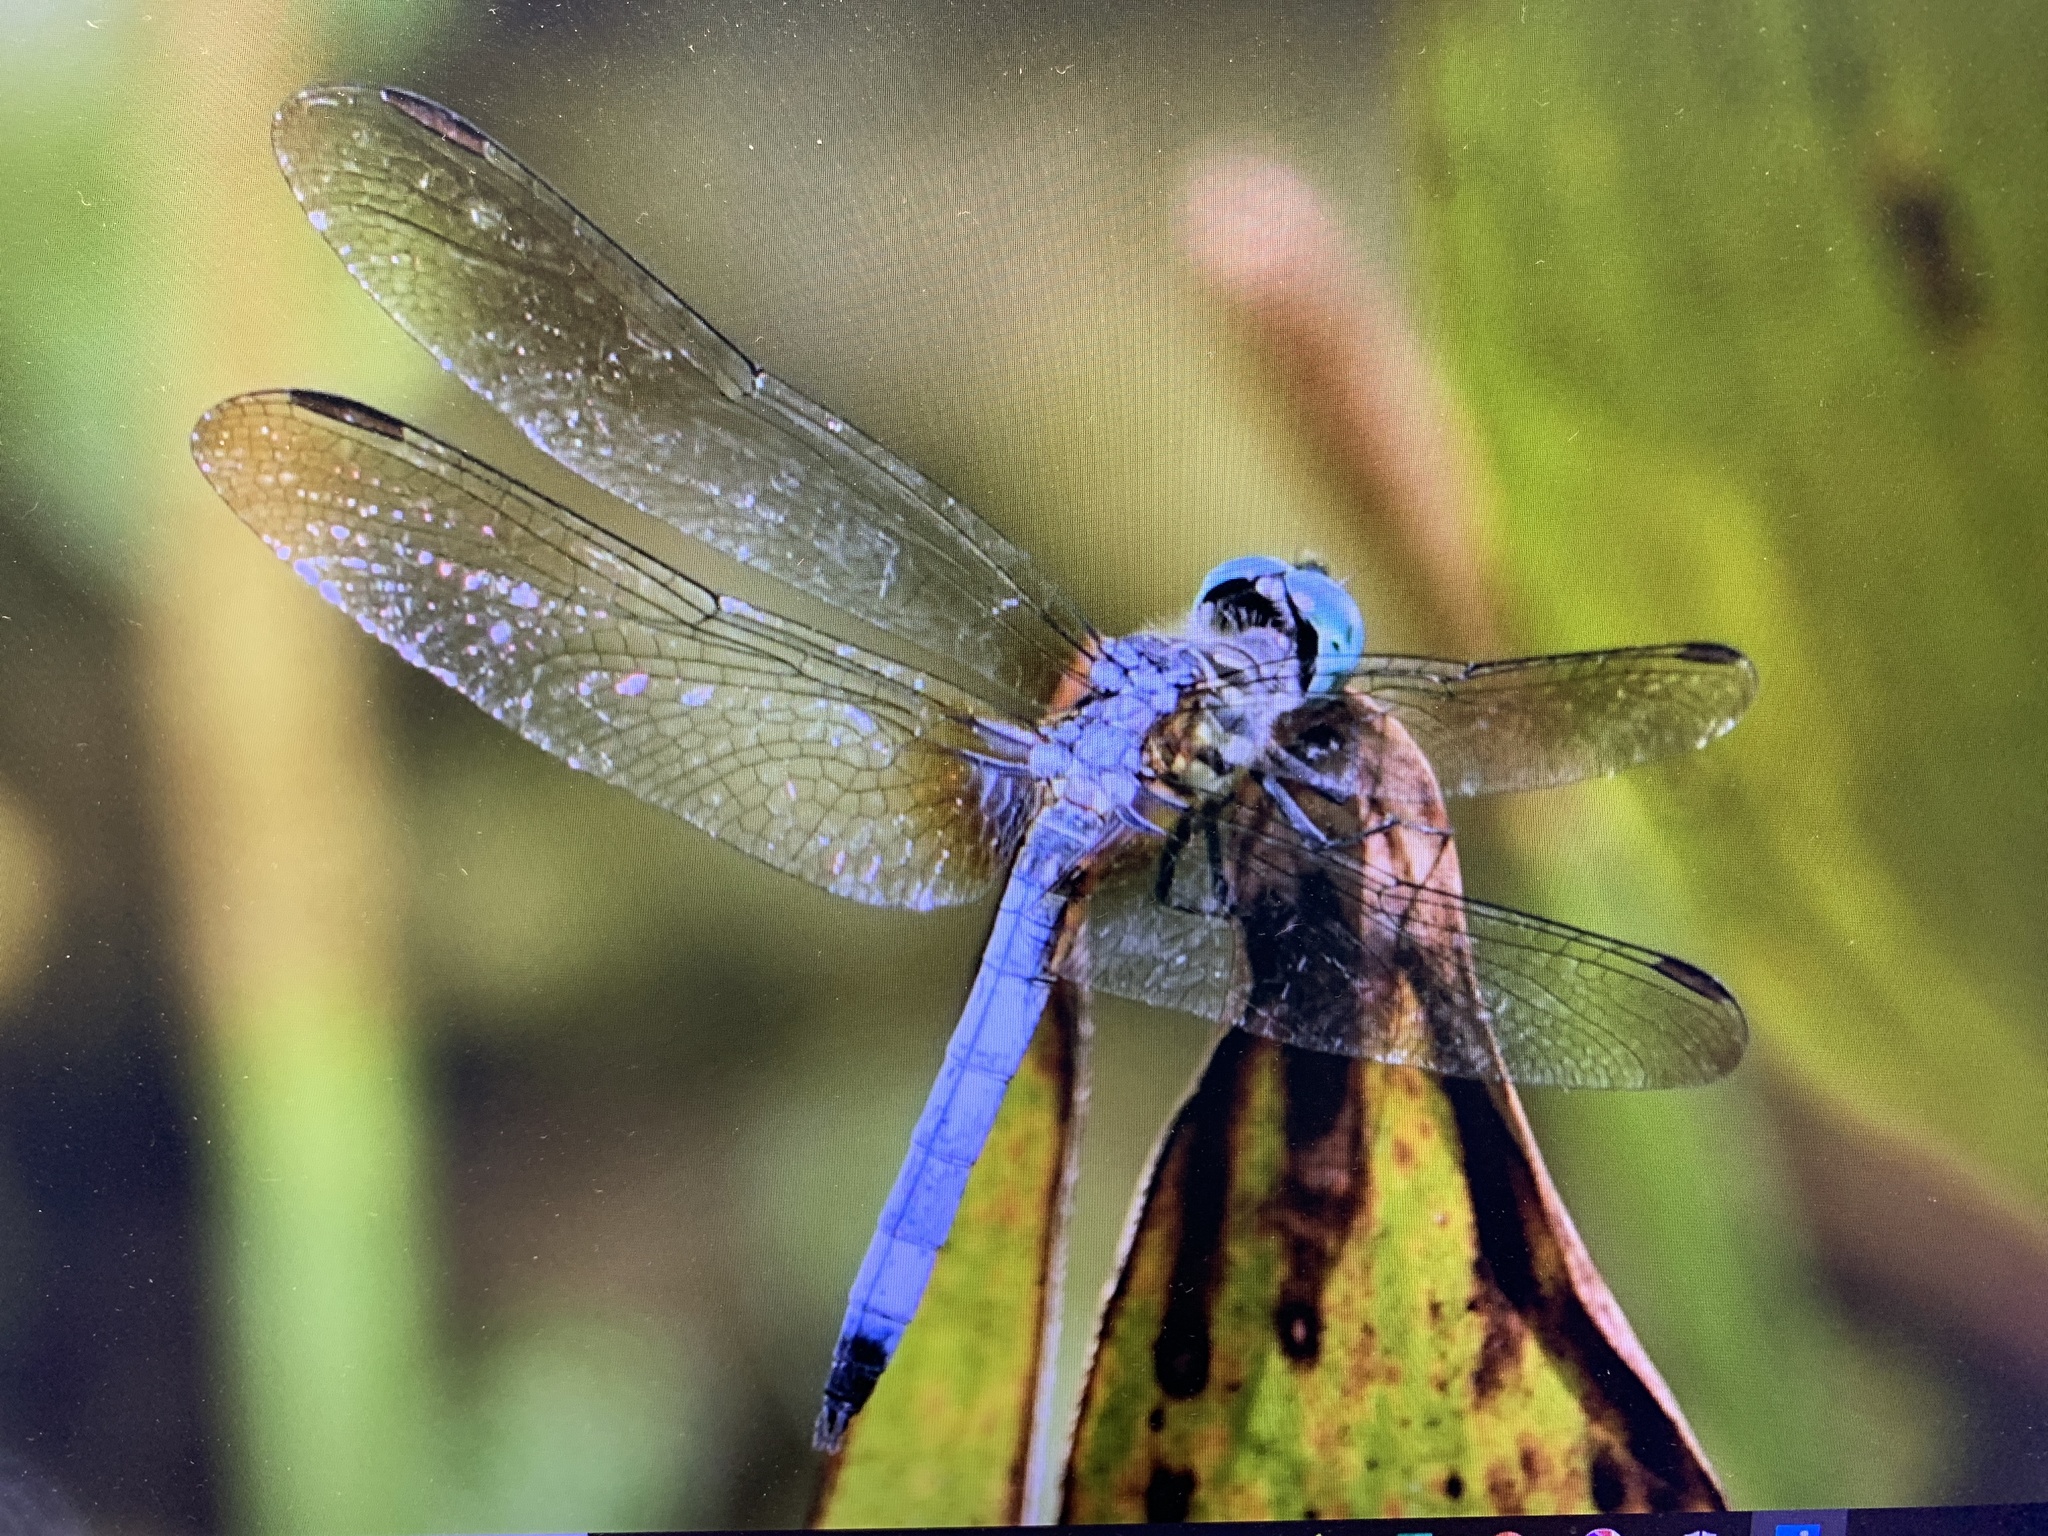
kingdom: Animalia
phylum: Arthropoda
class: Insecta
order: Odonata
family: Libellulidae
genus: Pachydiplax
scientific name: Pachydiplax longipennis
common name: Blue dasher
